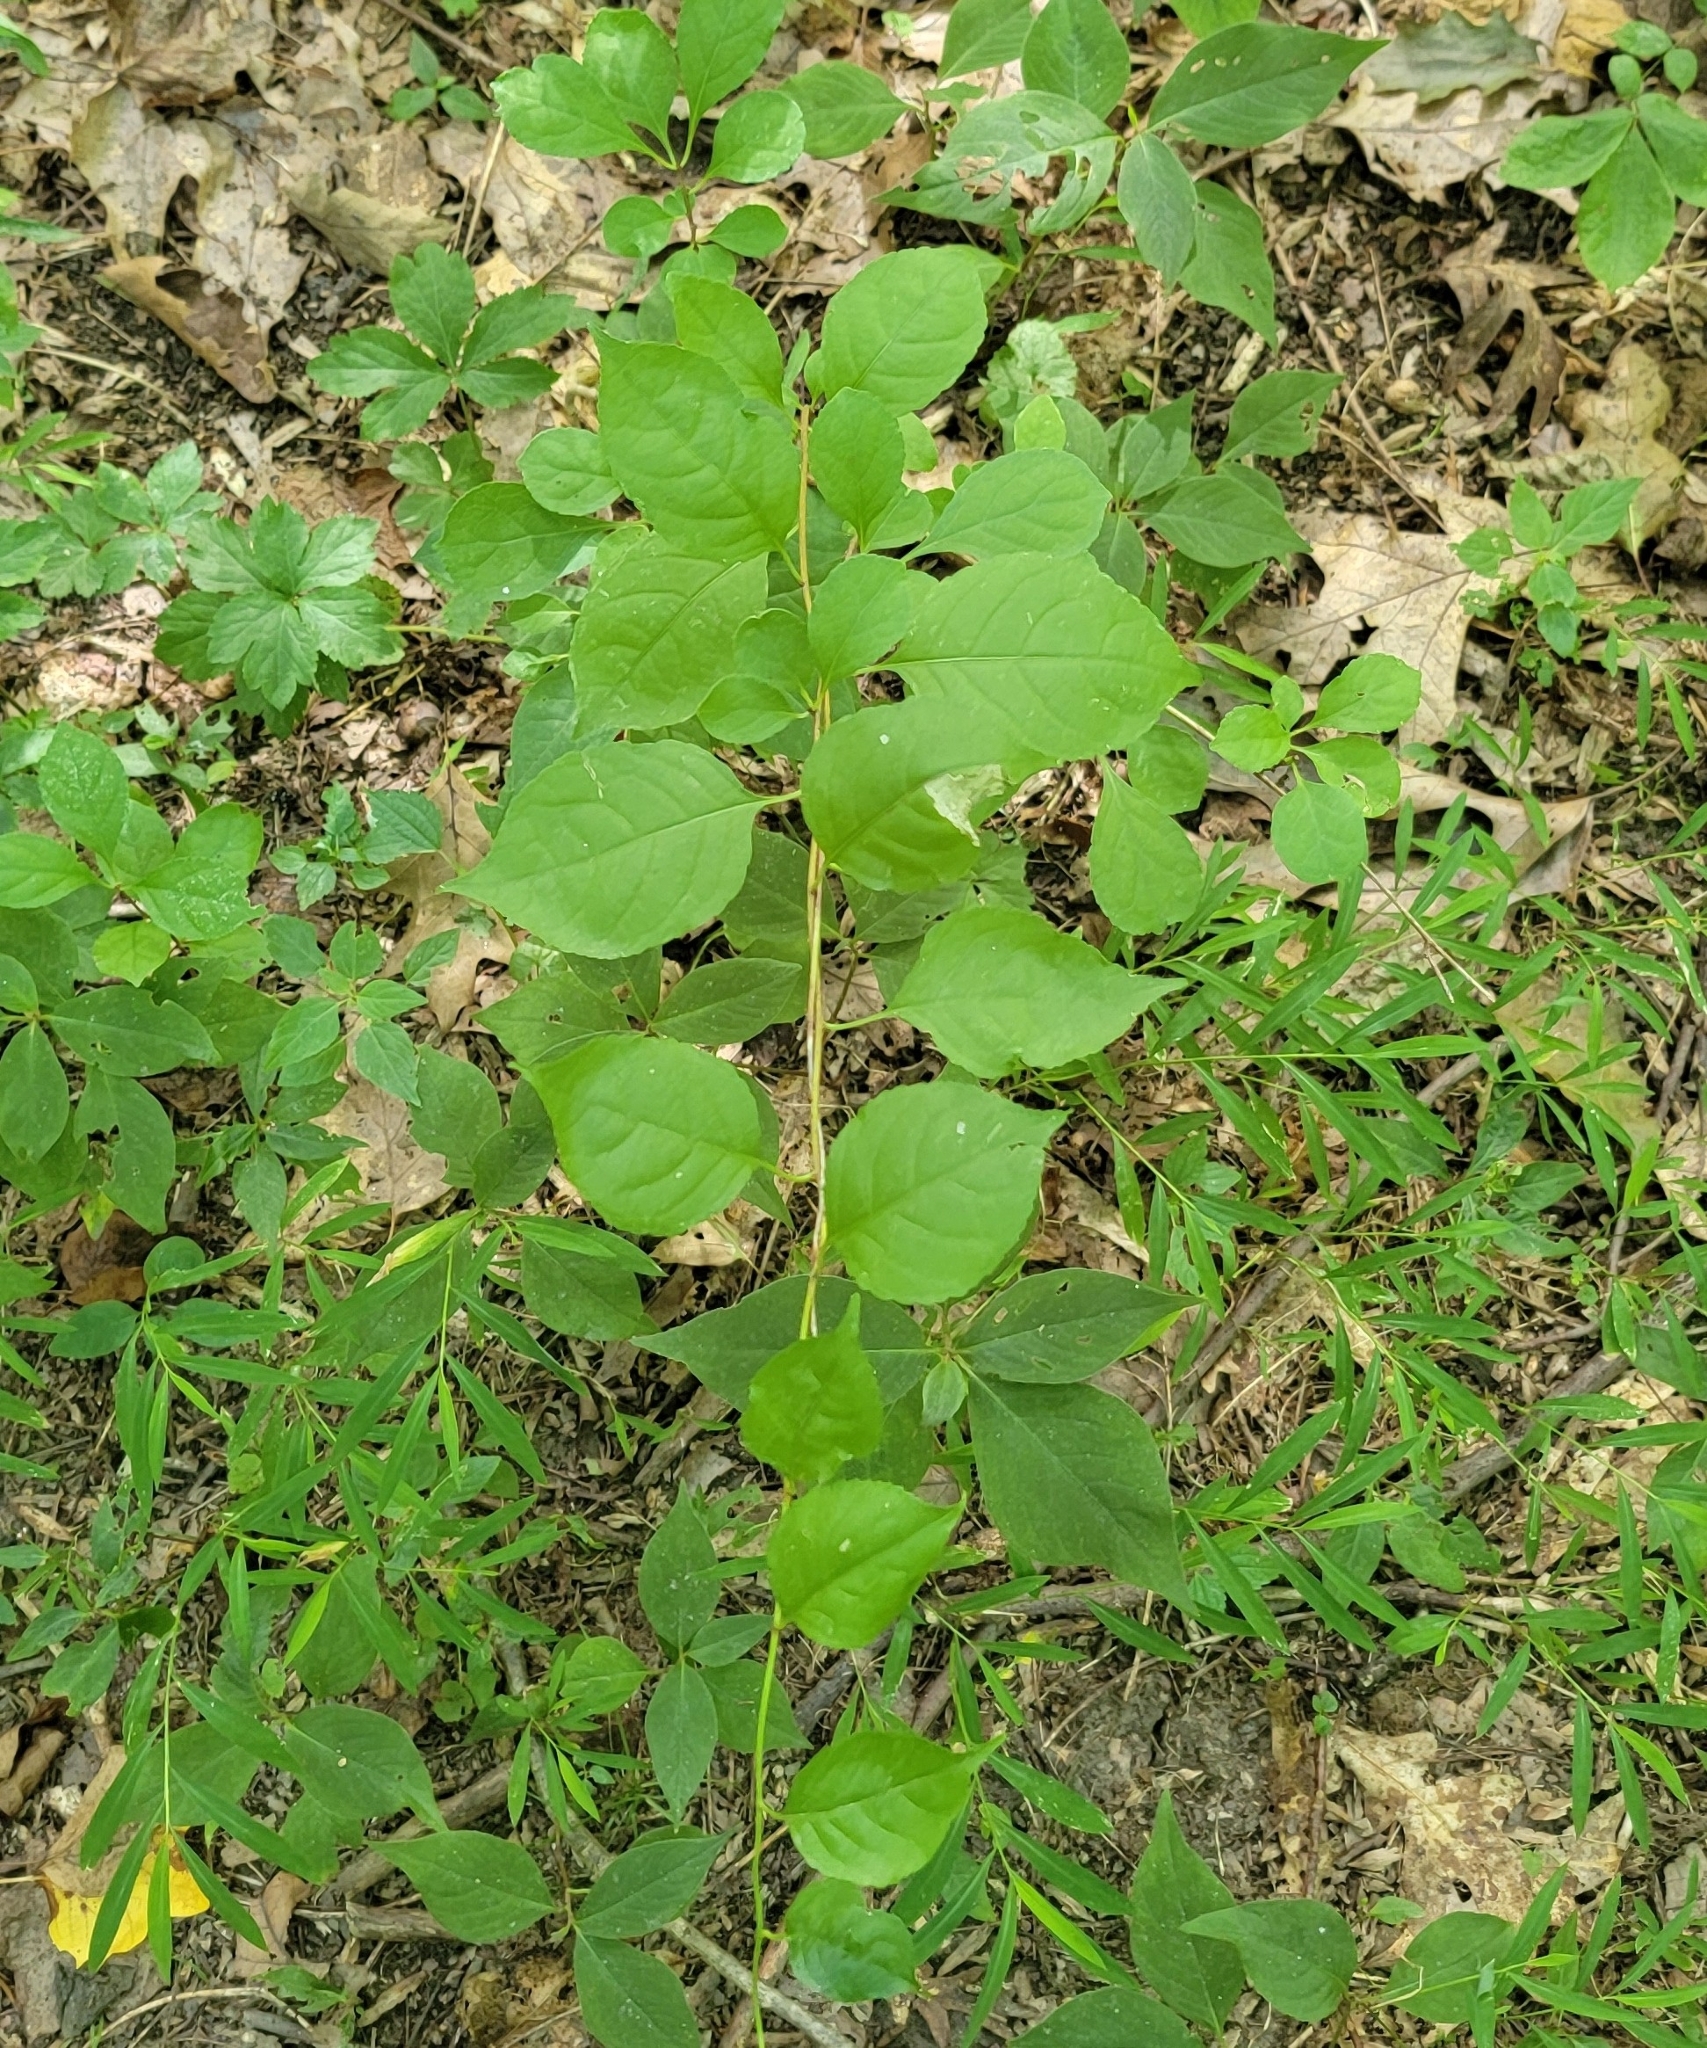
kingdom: Plantae
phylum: Tracheophyta
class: Magnoliopsida
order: Celastrales
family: Celastraceae
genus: Celastrus
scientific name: Celastrus orbiculatus
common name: Oriental bittersweet
